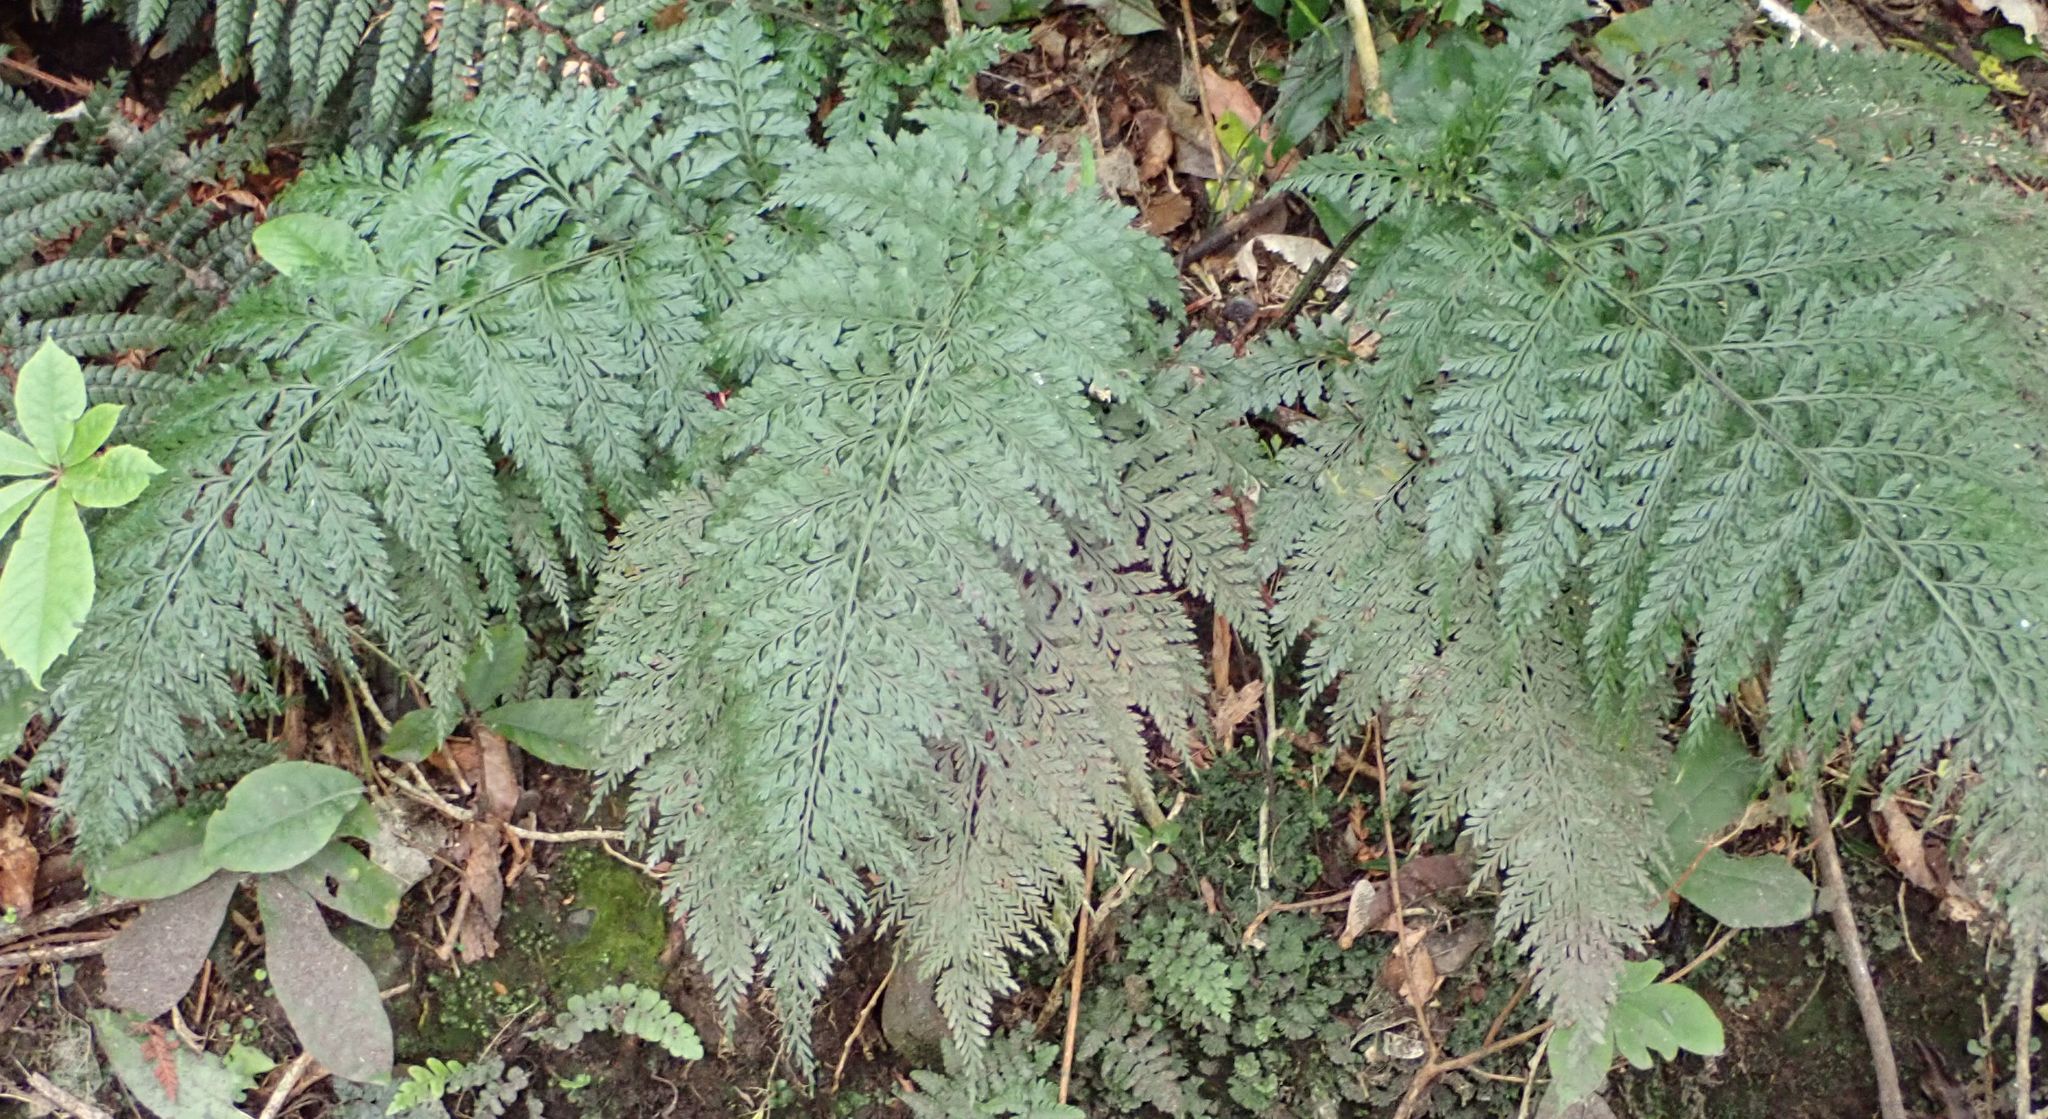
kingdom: Plantae
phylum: Tracheophyta
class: Polypodiopsida
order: Polypodiales
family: Aspleniaceae
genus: Asplenium
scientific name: Asplenium
